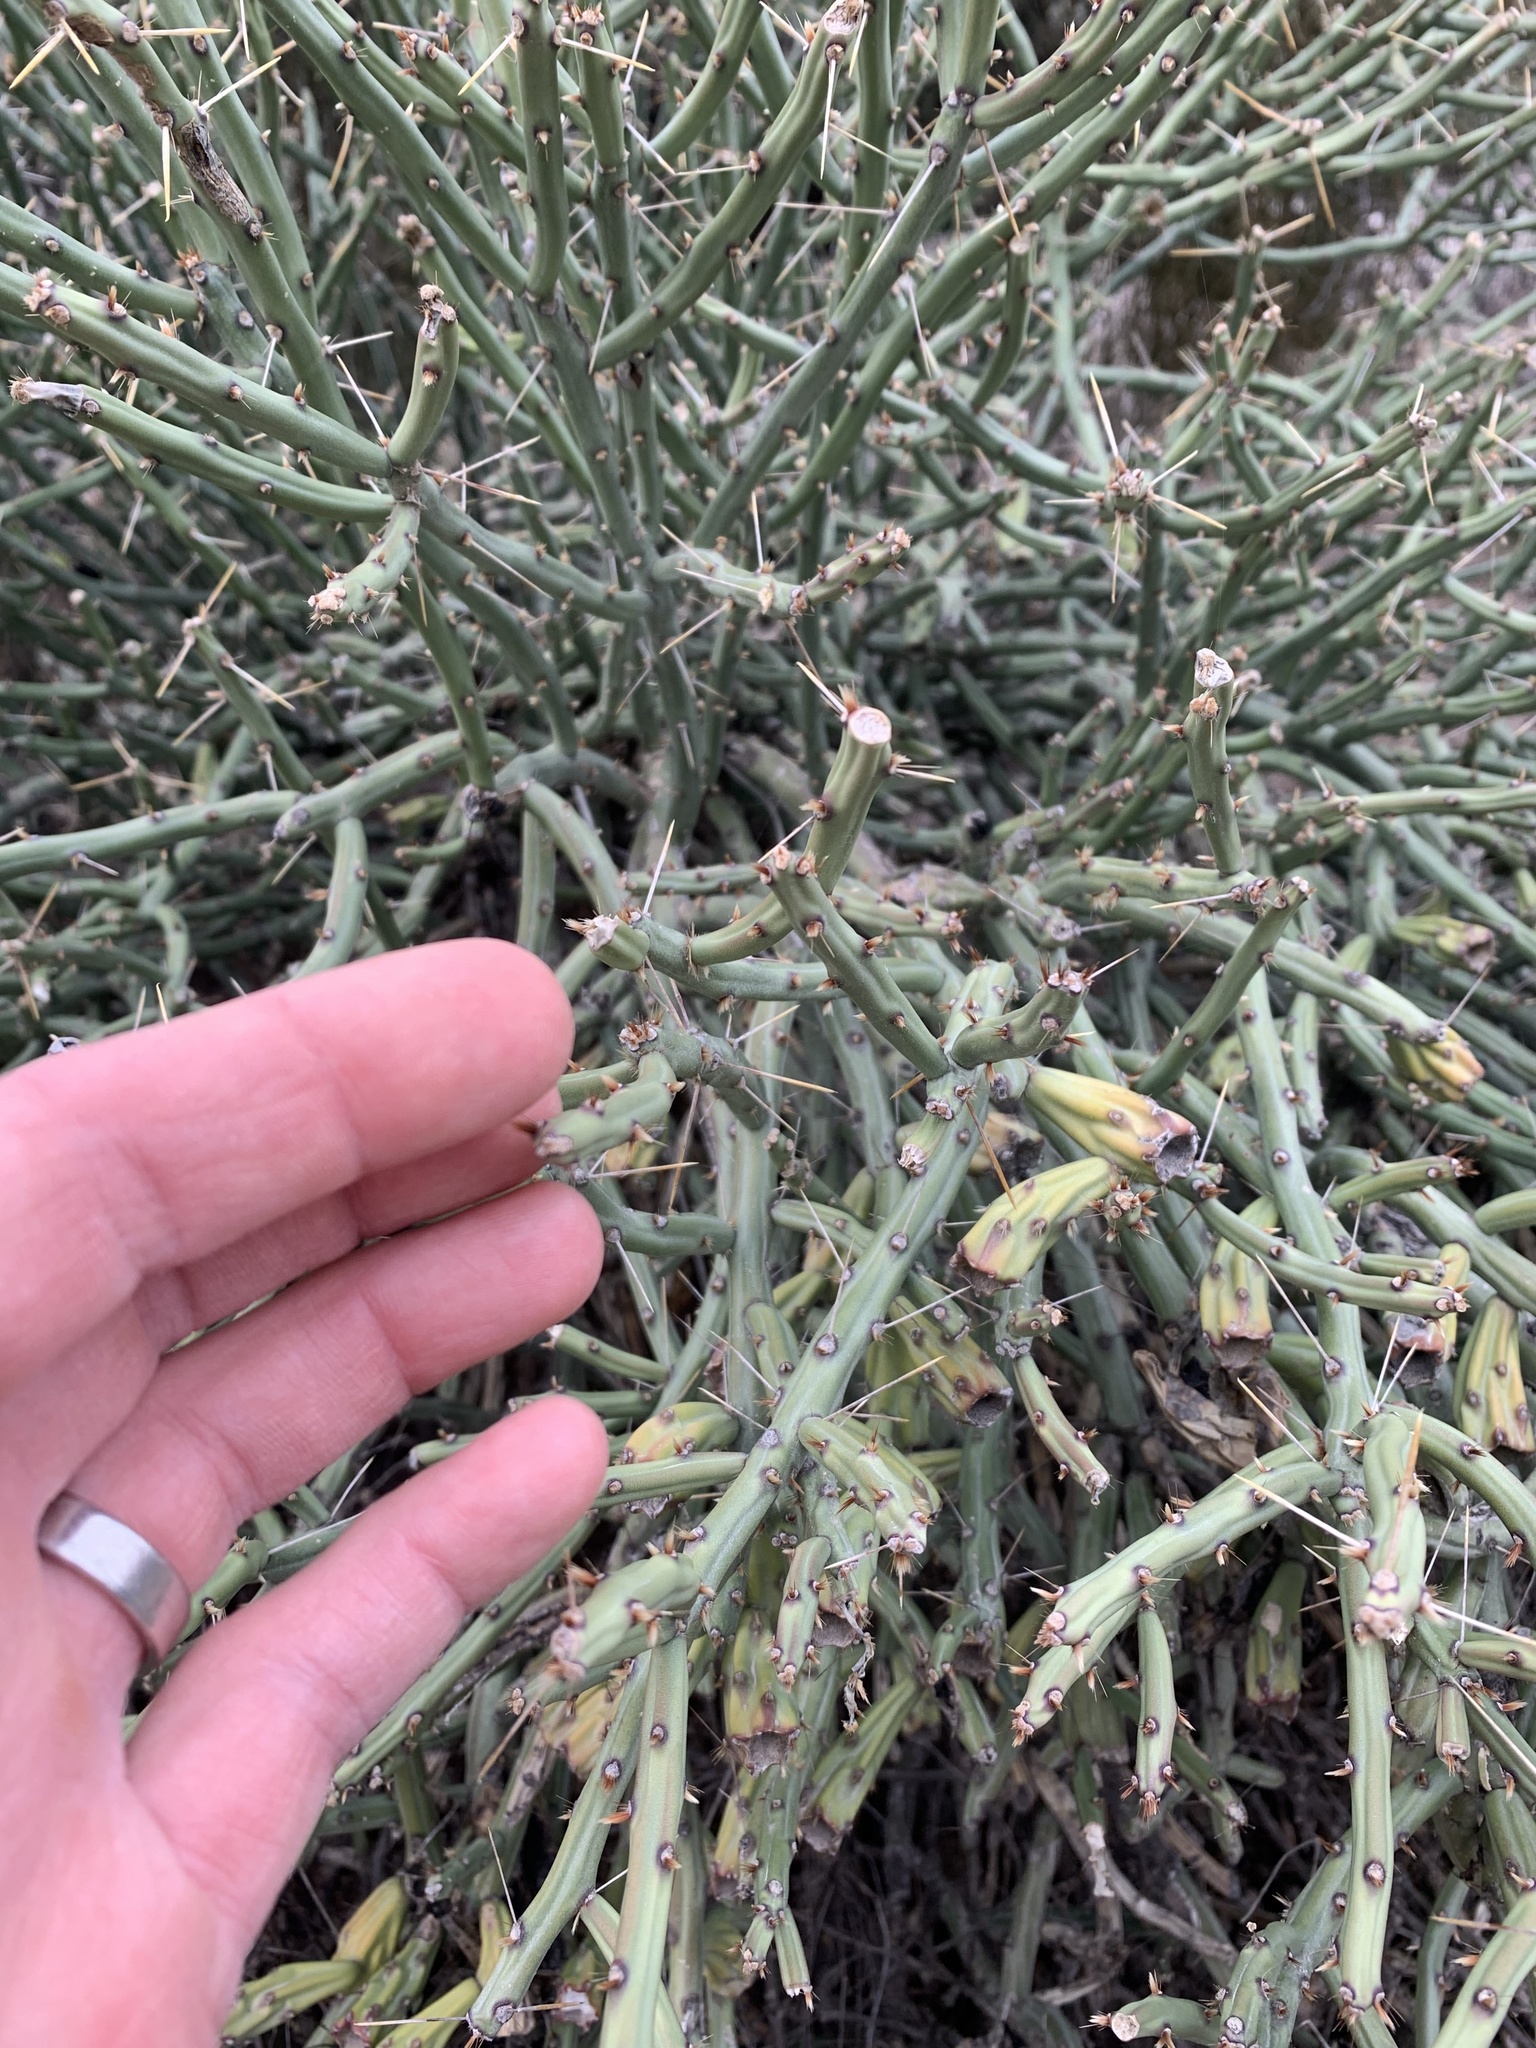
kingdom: Plantae
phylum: Tracheophyta
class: Magnoliopsida
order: Caryophyllales
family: Cactaceae
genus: Cylindropuntia
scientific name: Cylindropuntia arbuscula
